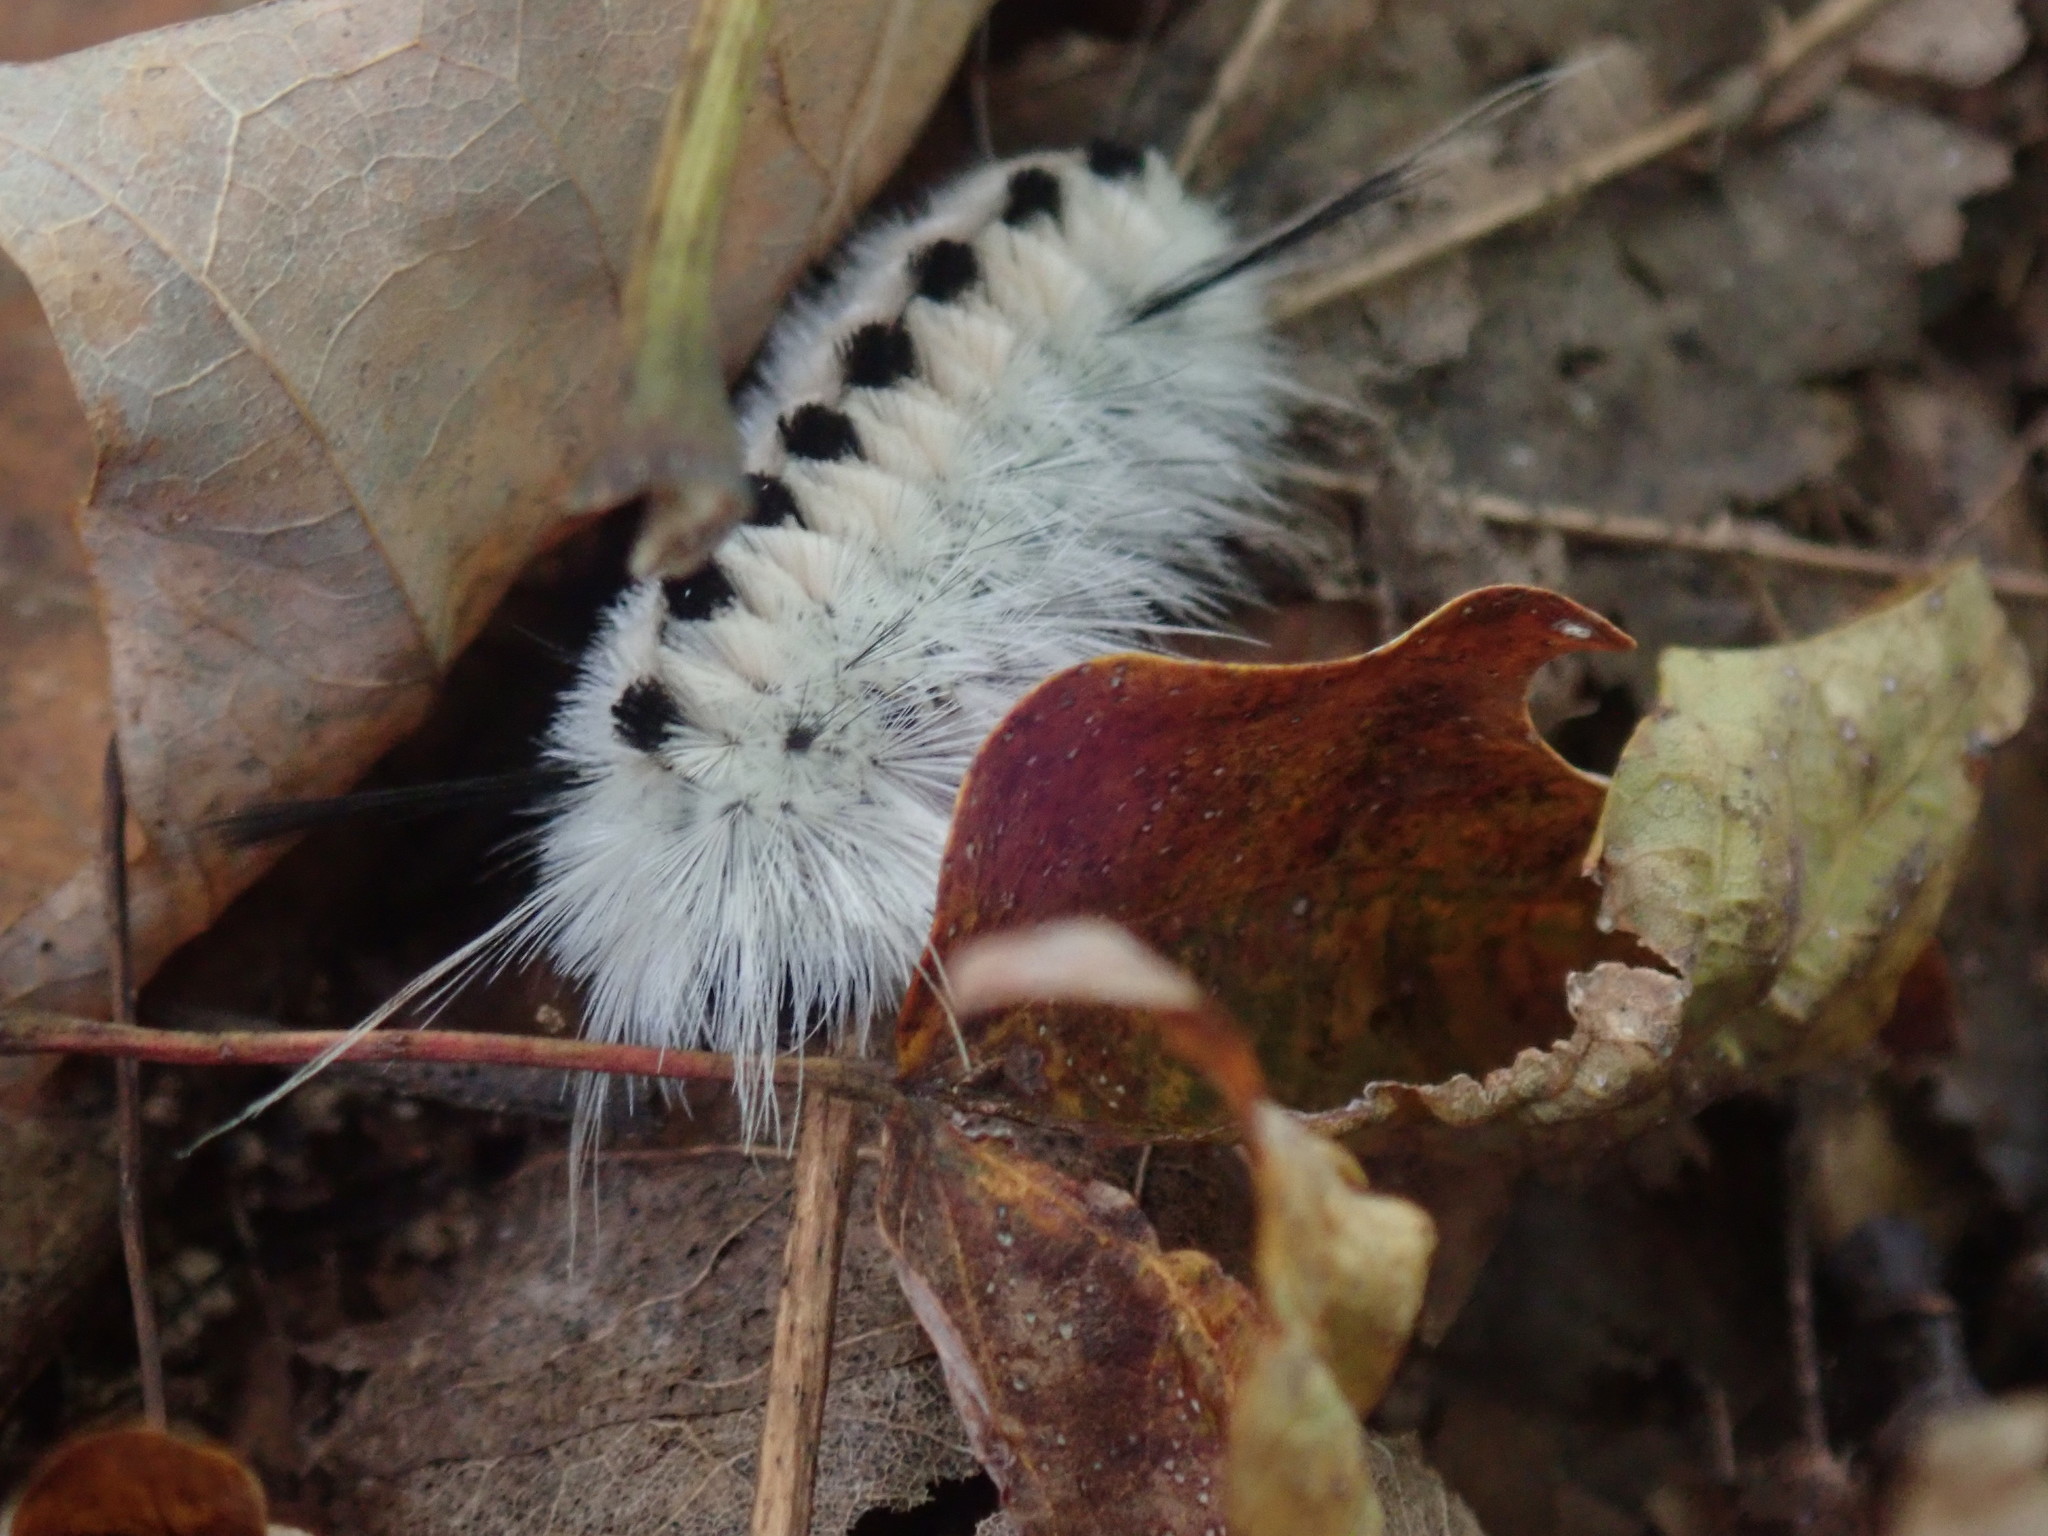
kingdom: Animalia
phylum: Arthropoda
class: Insecta
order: Lepidoptera
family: Erebidae
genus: Lophocampa
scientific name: Lophocampa caryae
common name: Hickory tussock moth
